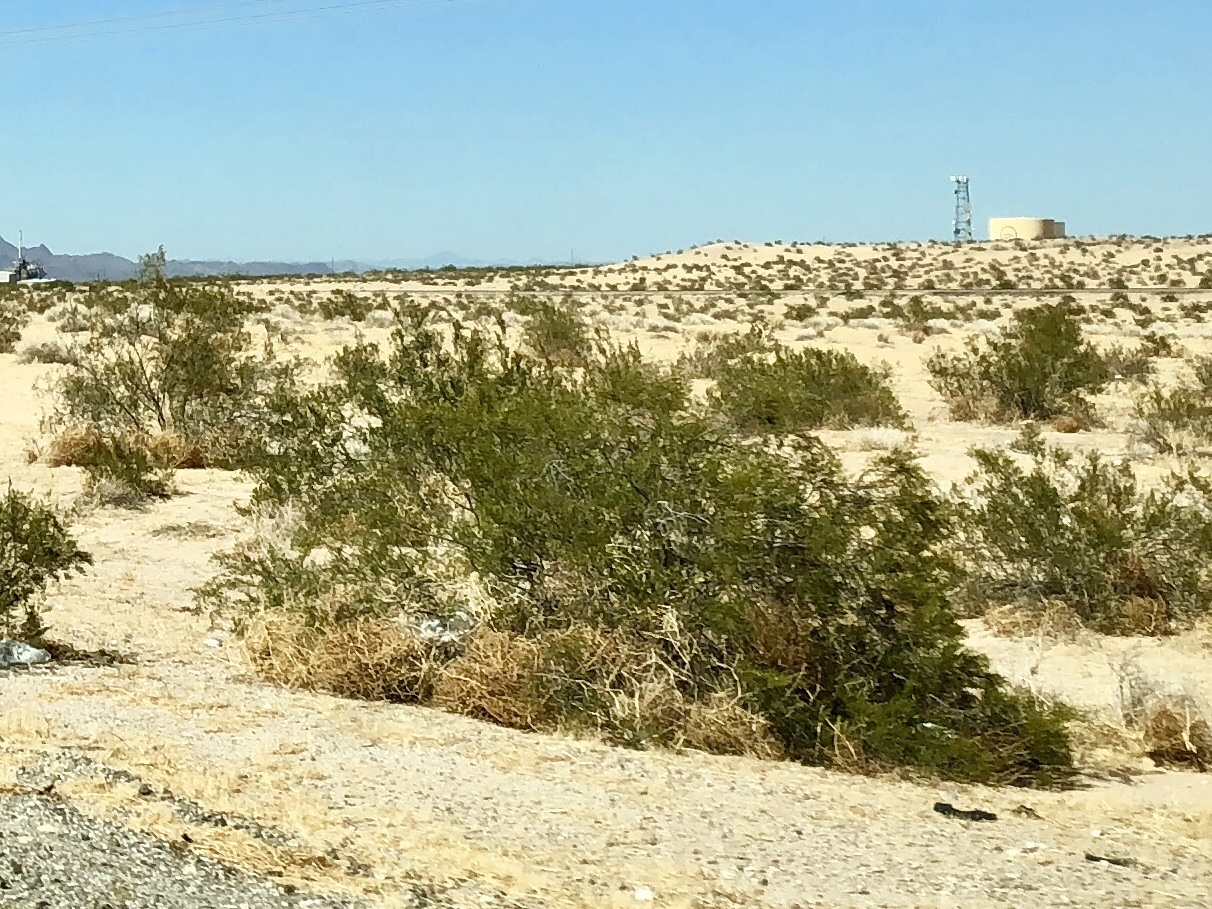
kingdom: Plantae
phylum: Tracheophyta
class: Magnoliopsida
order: Zygophyllales
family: Zygophyllaceae
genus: Larrea
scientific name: Larrea tridentata
